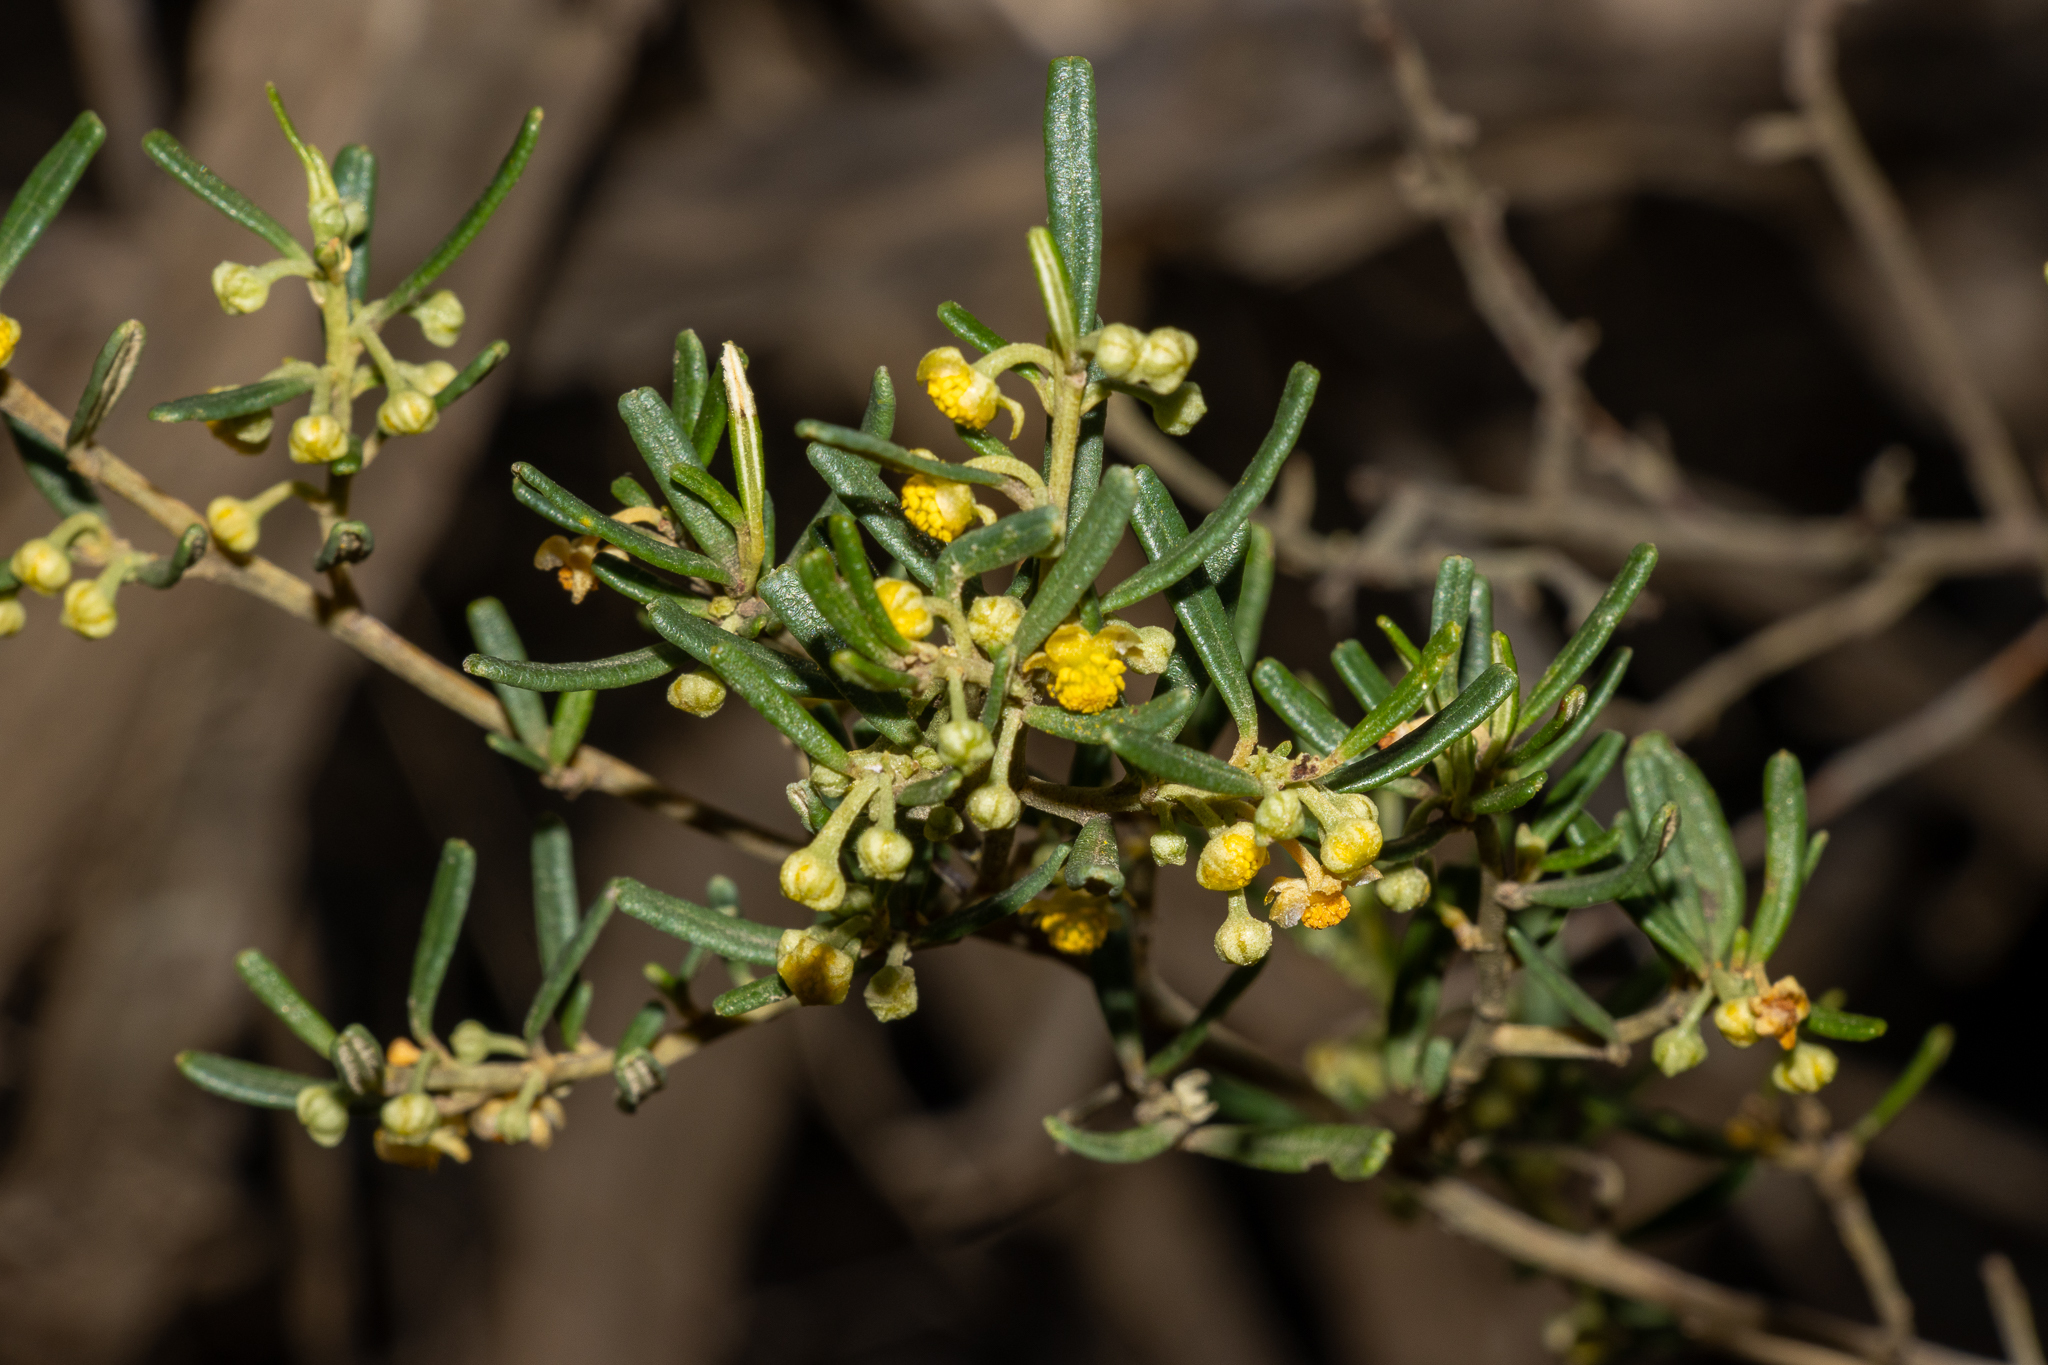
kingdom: Plantae
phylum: Tracheophyta
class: Magnoliopsida
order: Malpighiales
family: Euphorbiaceae
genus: Beyeria
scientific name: Beyeria lechenaultii
